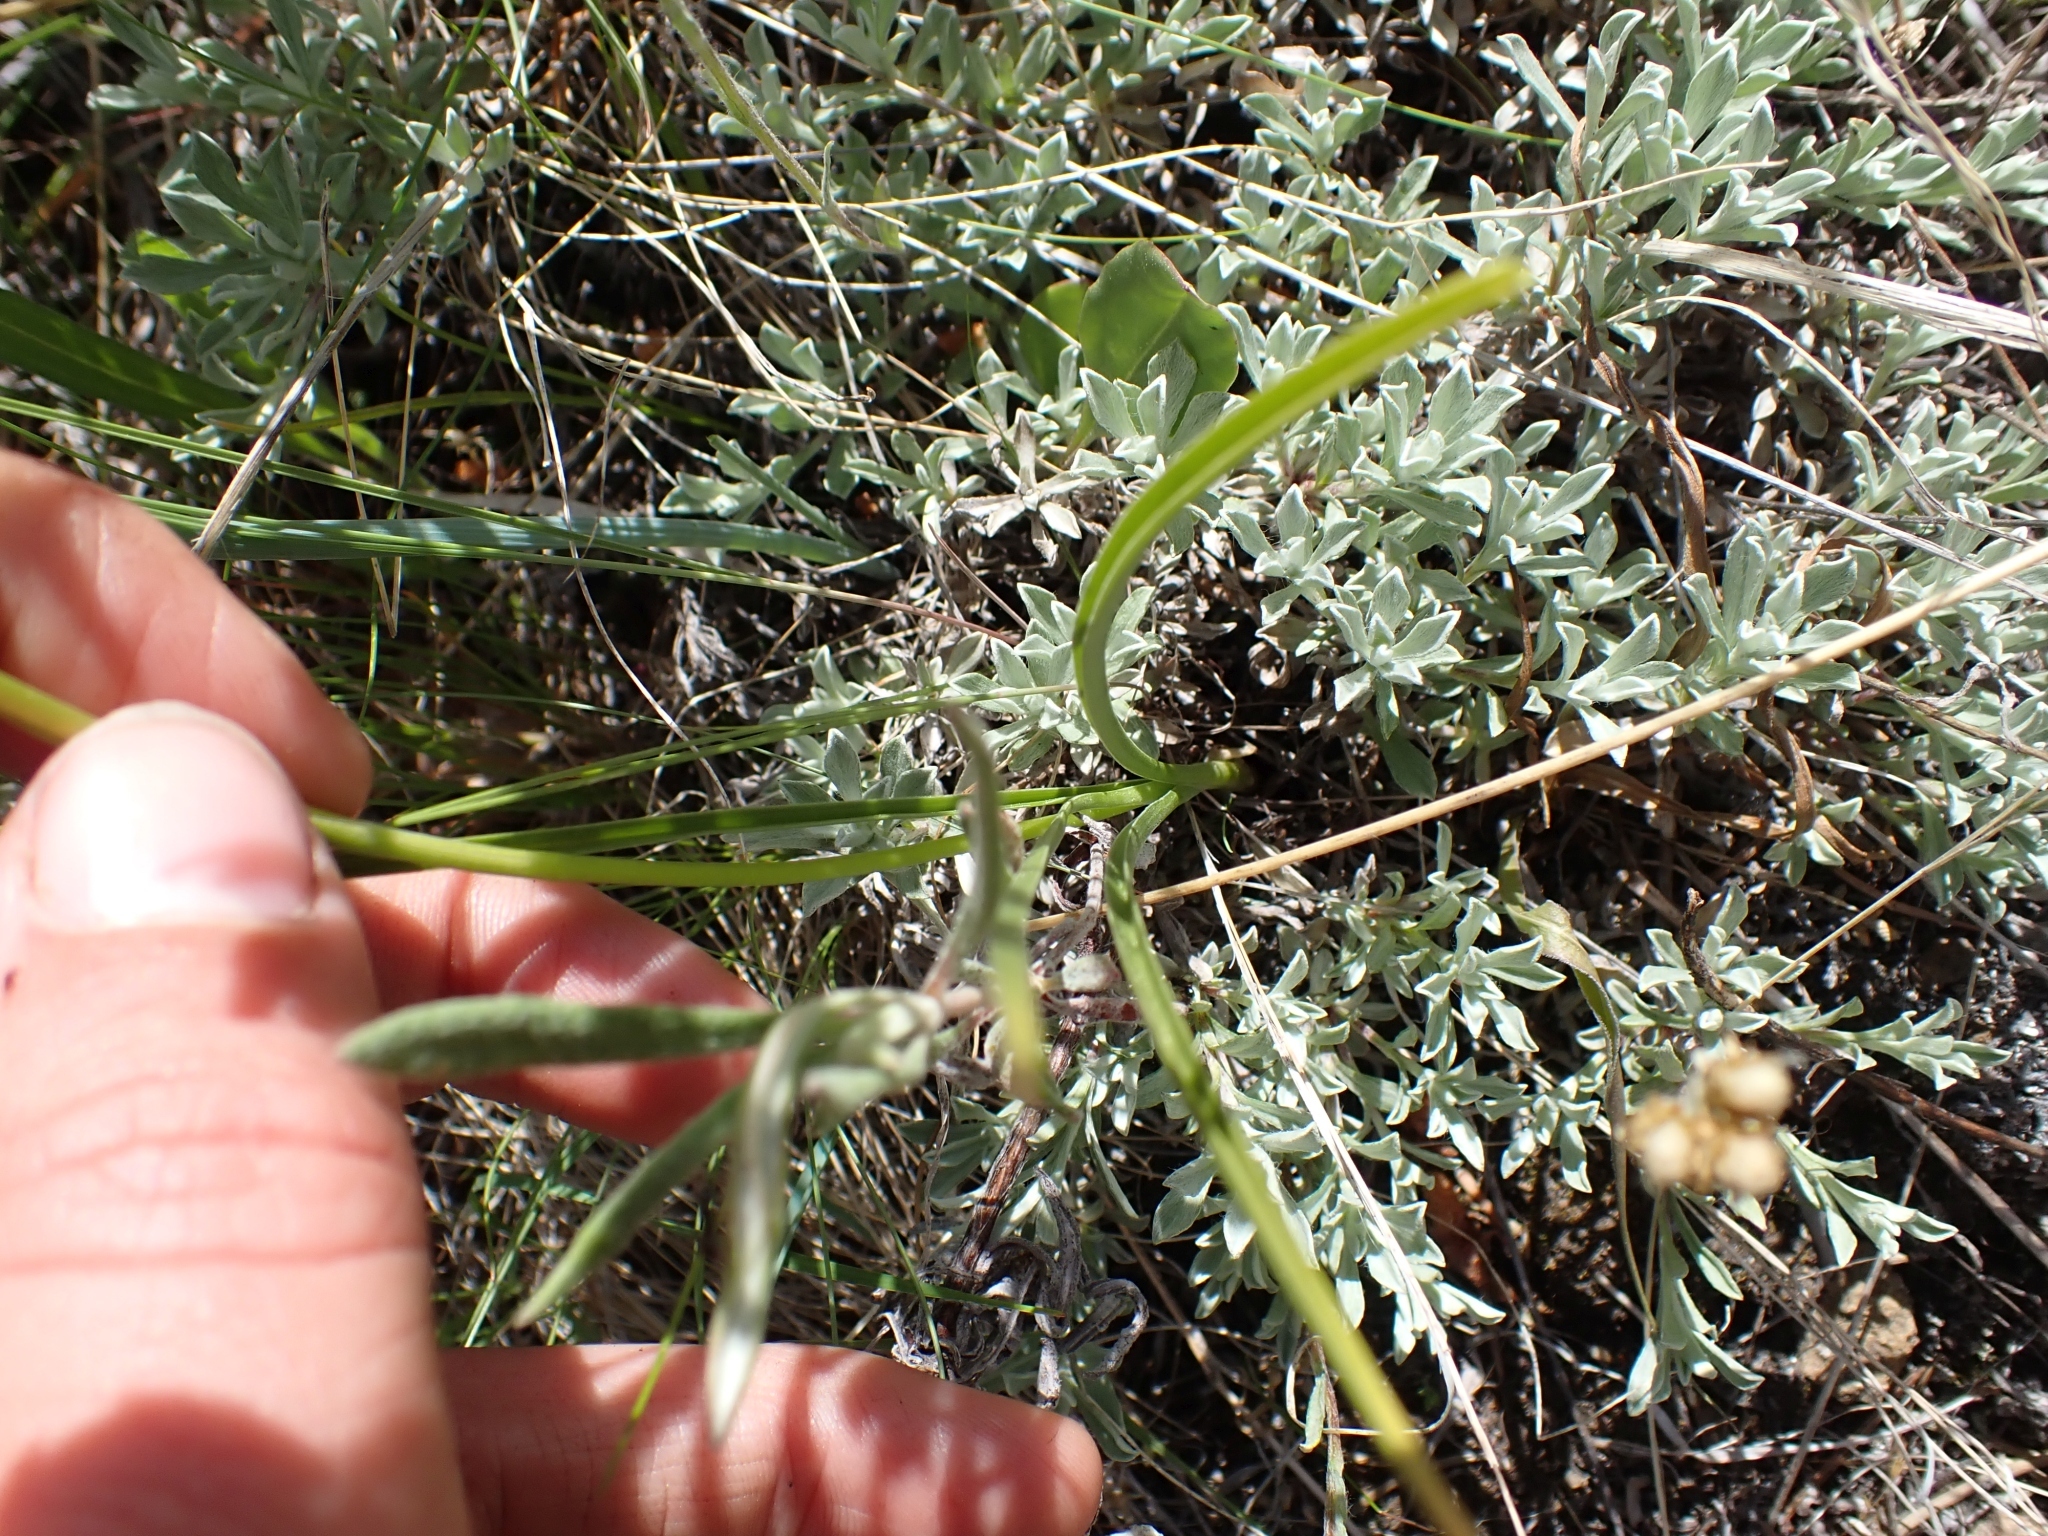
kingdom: Plantae
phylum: Tracheophyta
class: Liliopsida
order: Liliales
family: Melanthiaceae
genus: Toxicoscordion
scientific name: Toxicoscordion venenosum
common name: Meadow death camas
